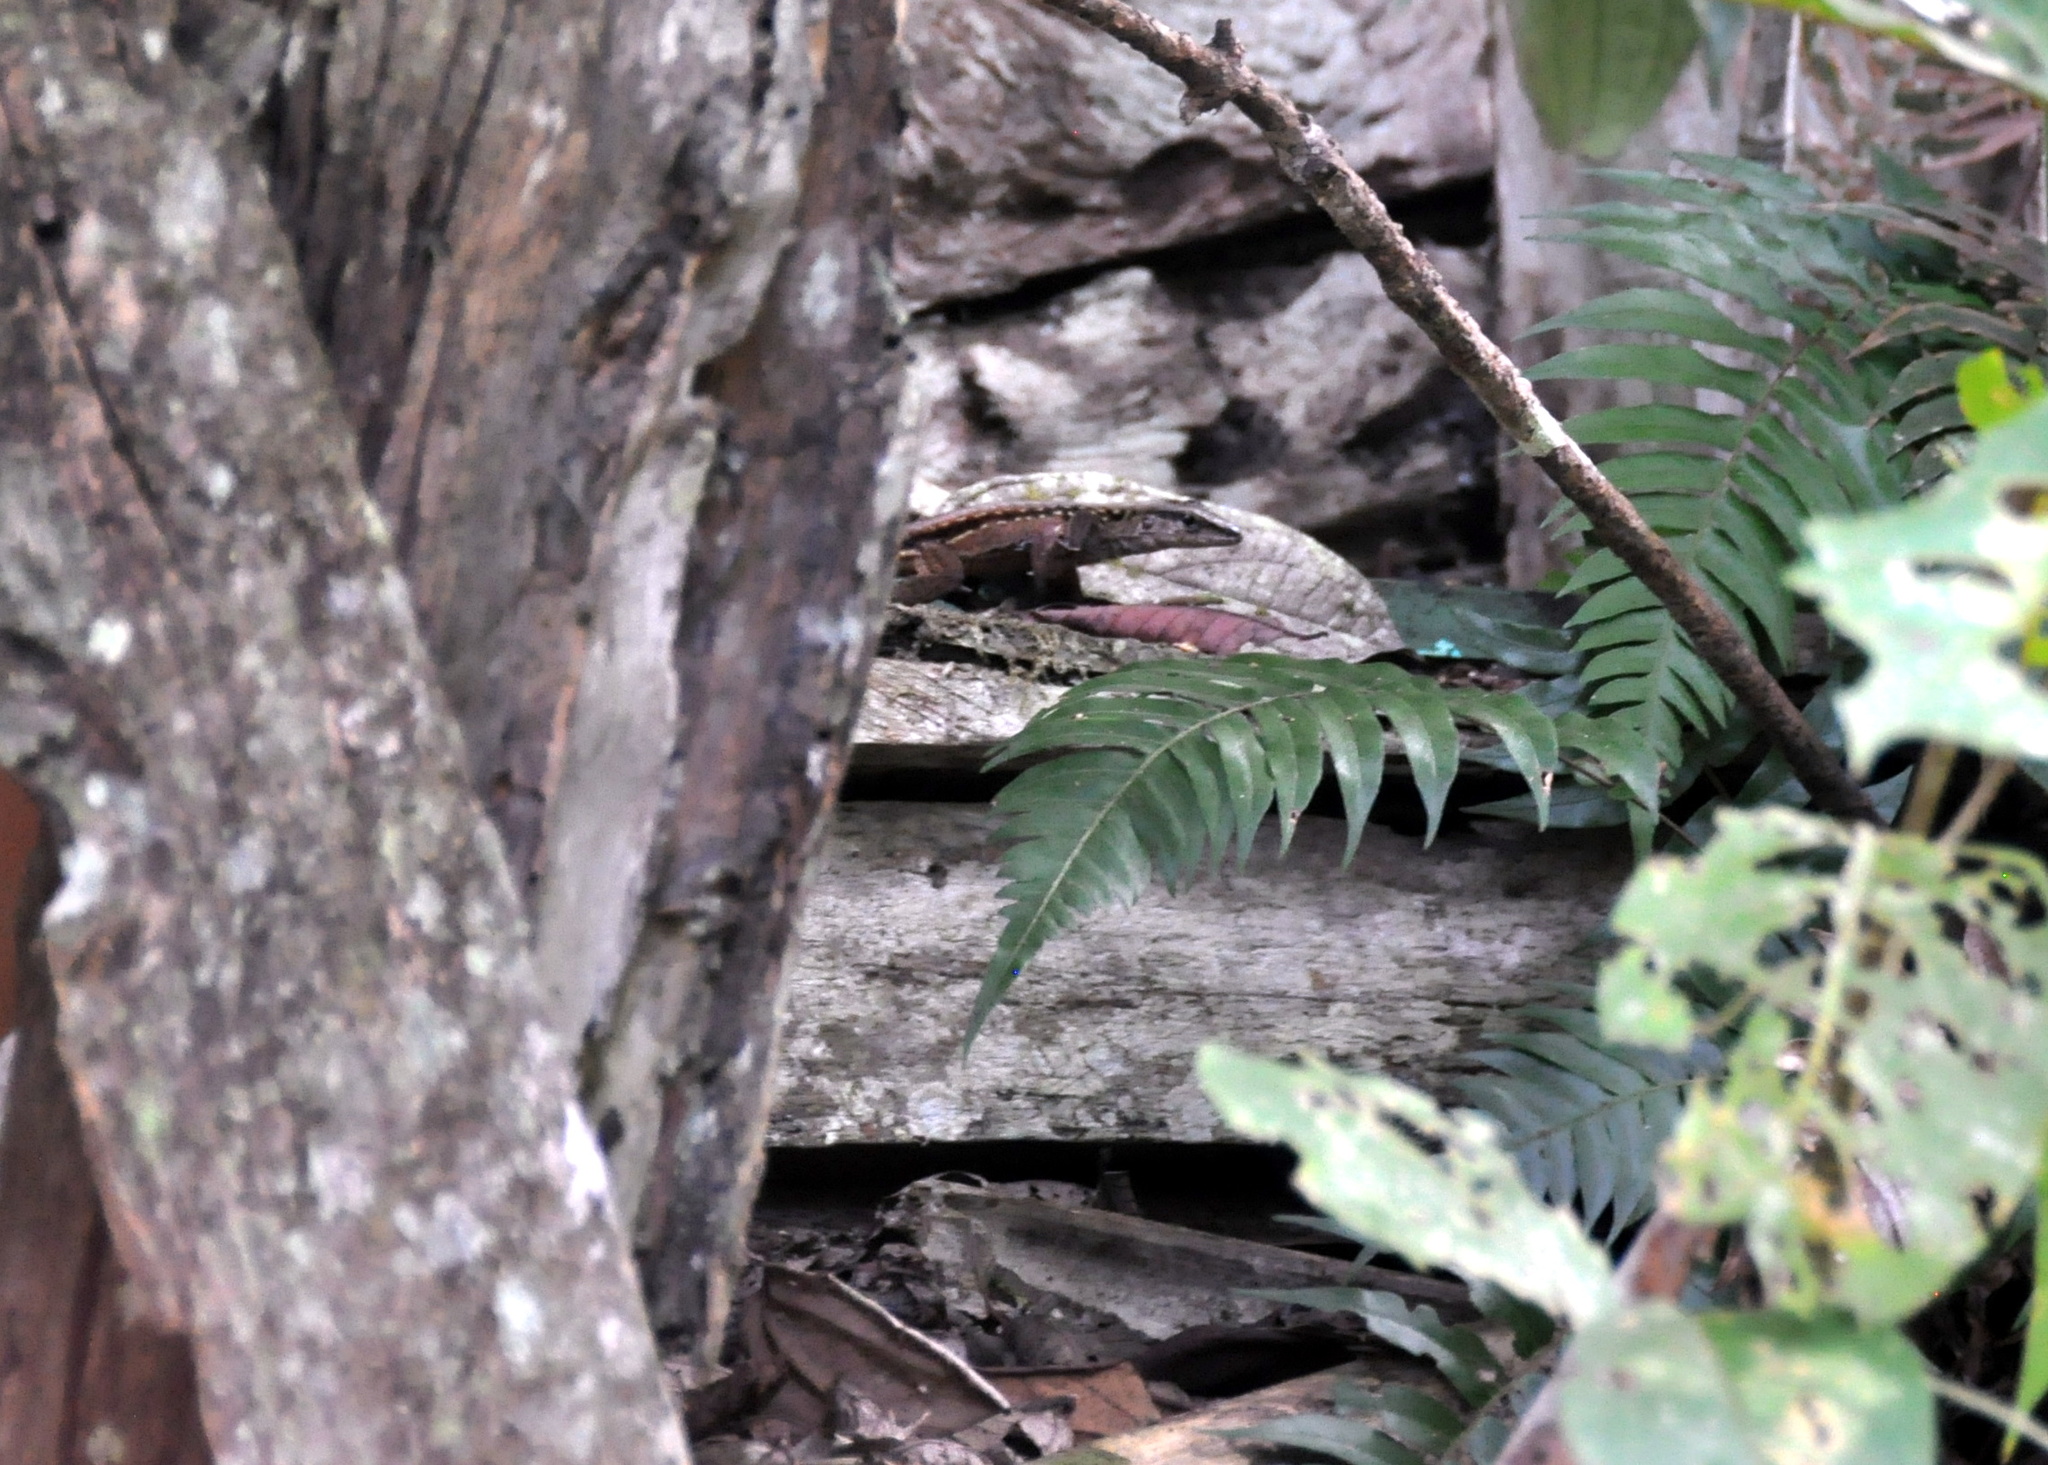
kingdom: Animalia
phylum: Chordata
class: Squamata
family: Teiidae
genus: Holcosus
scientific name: Holcosus festivus
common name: Middle american ameiva
